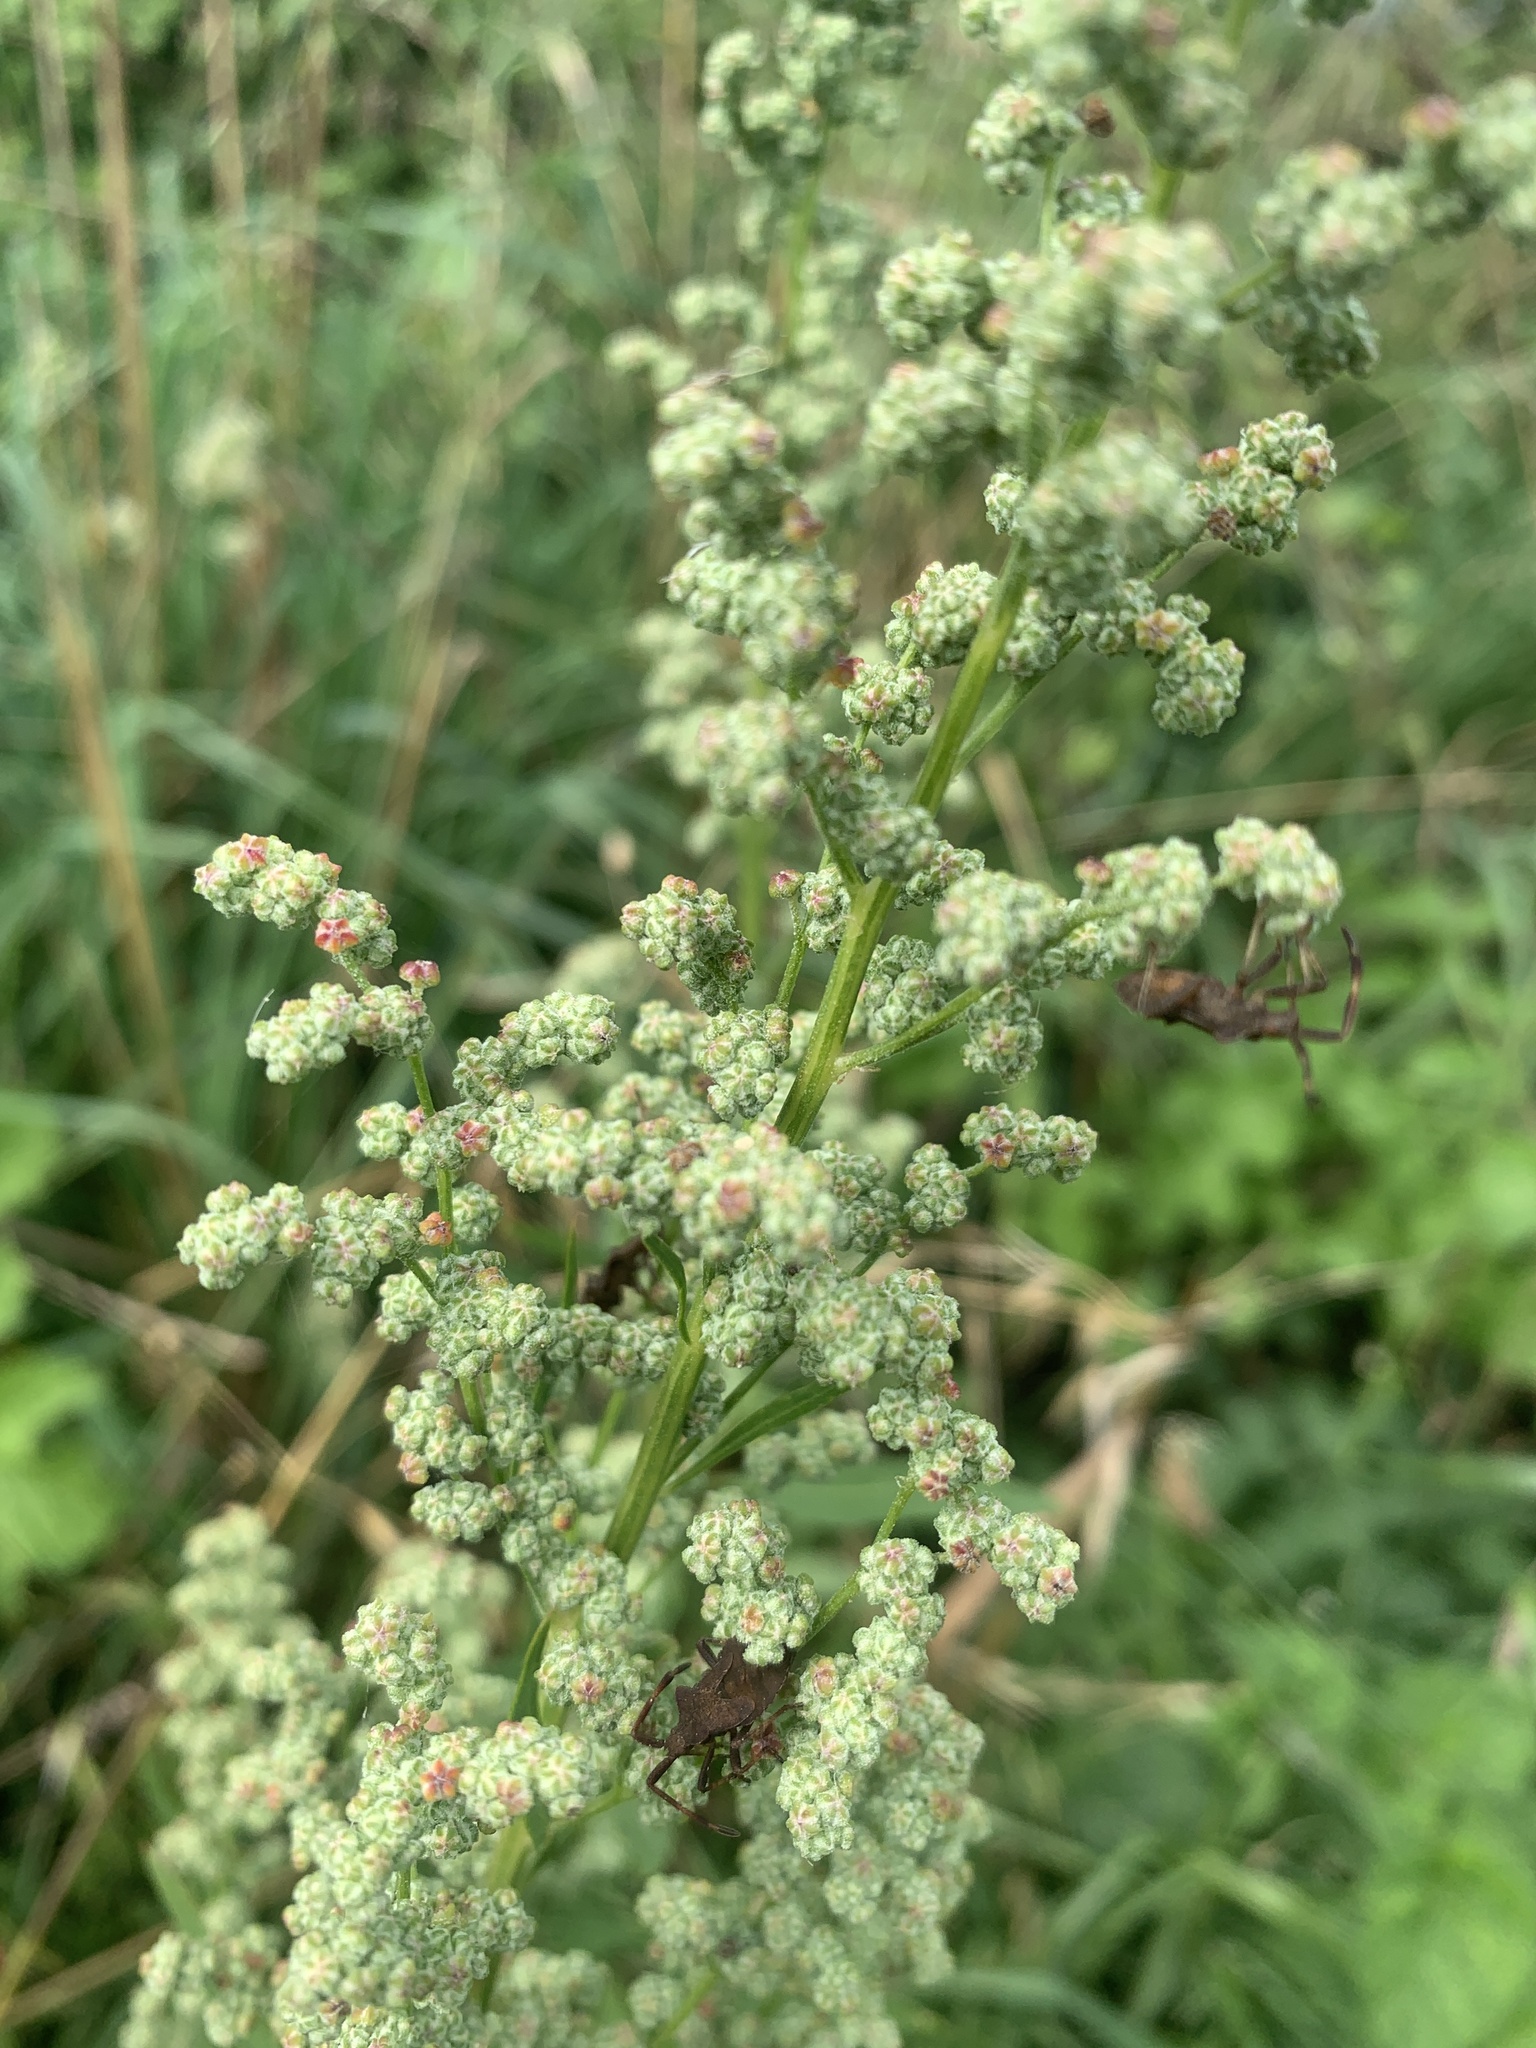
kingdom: Plantae
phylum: Tracheophyta
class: Magnoliopsida
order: Caryophyllales
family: Amaranthaceae
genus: Chenopodium
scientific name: Chenopodium album
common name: Fat-hen
